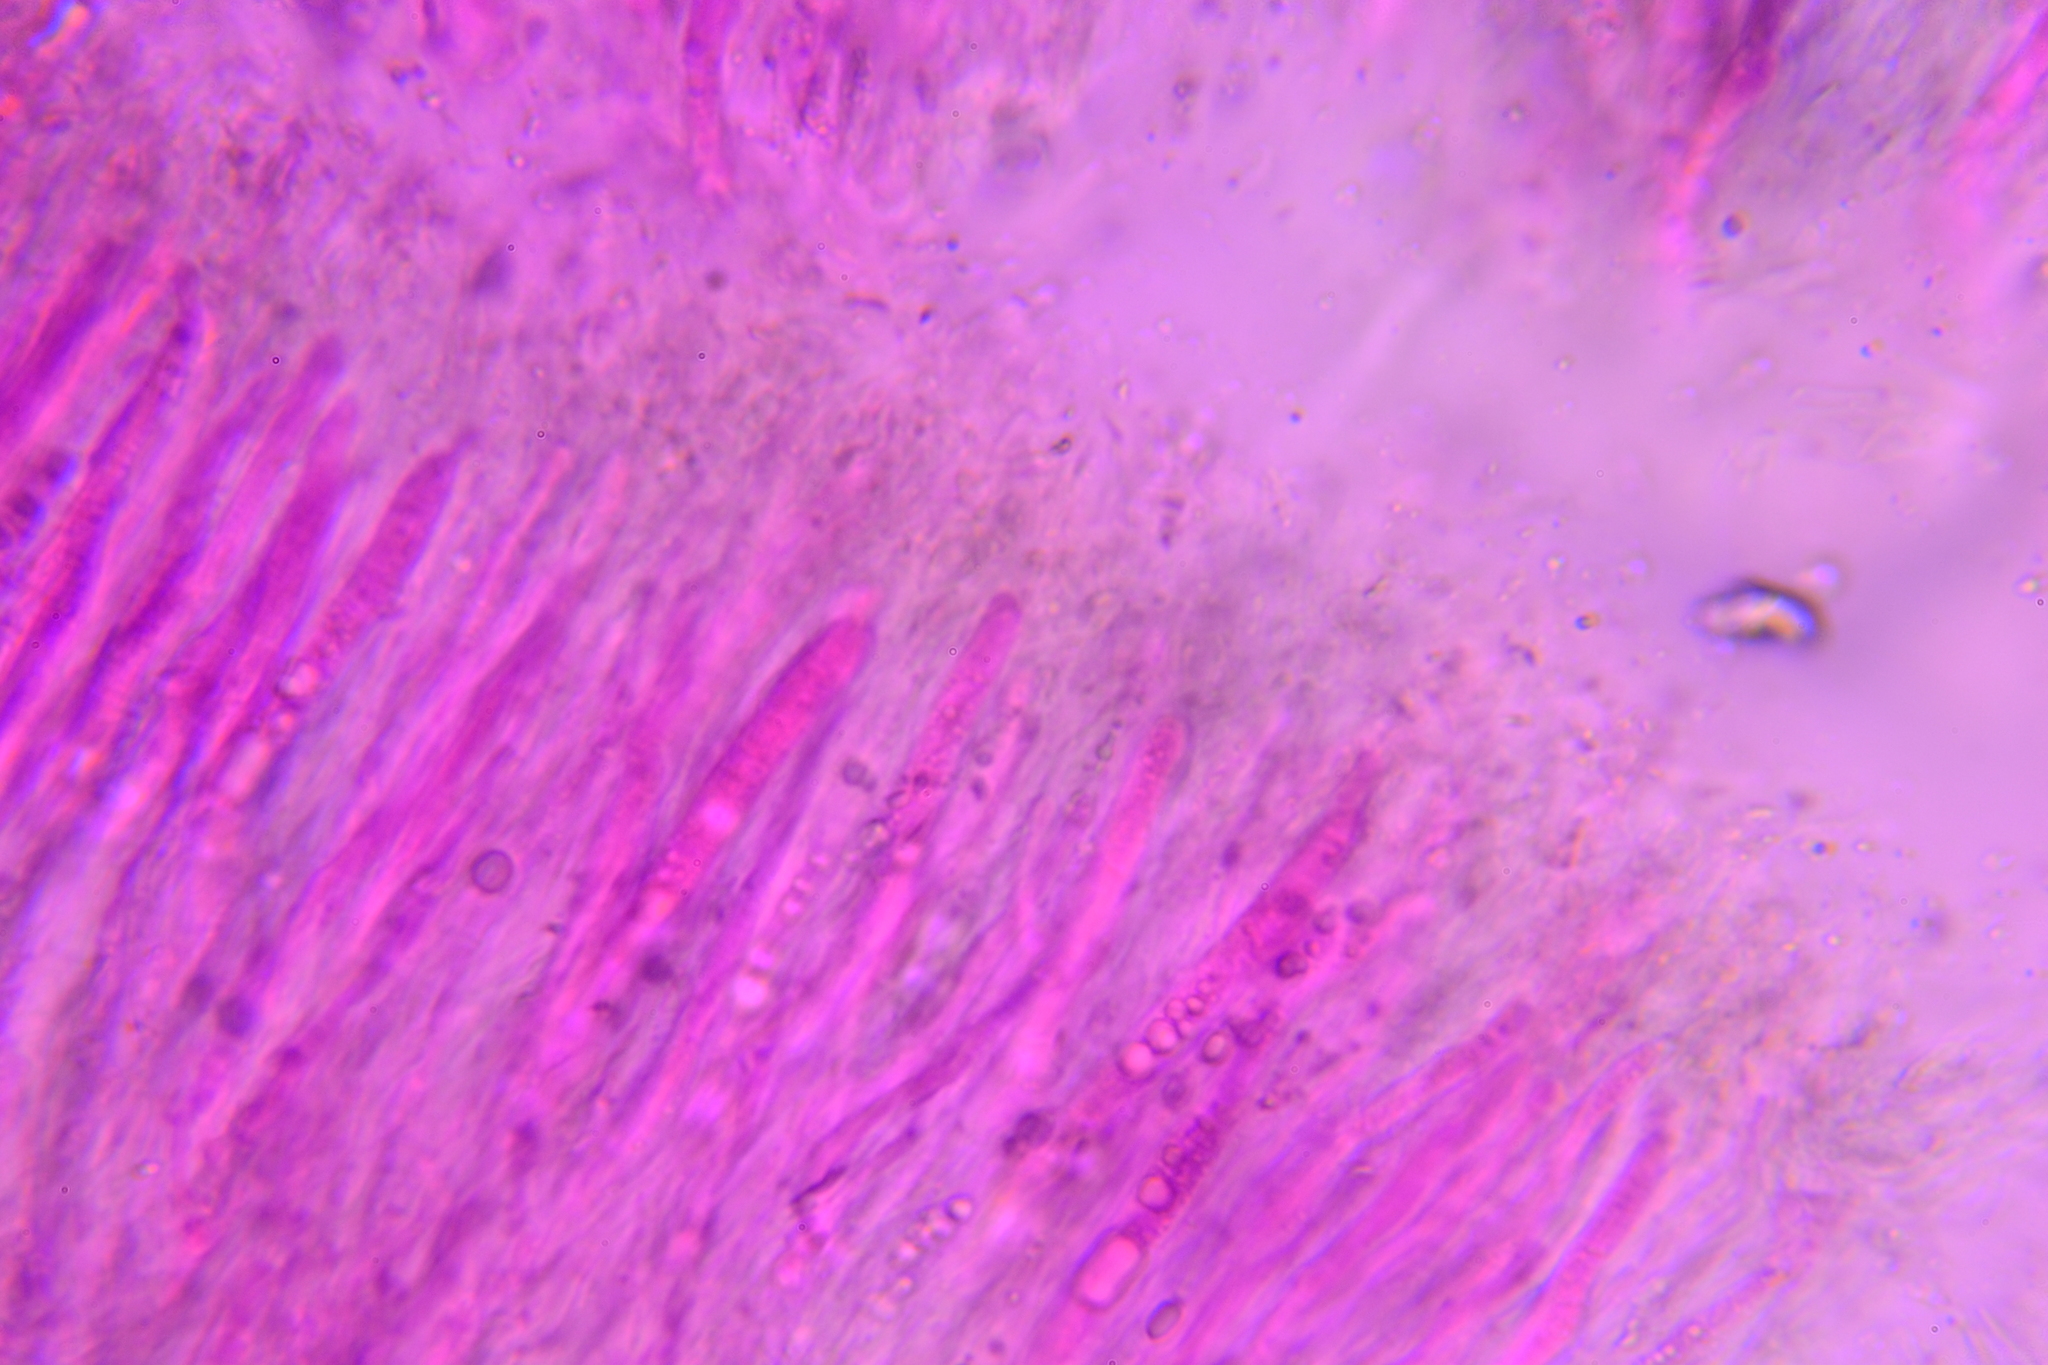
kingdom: Fungi
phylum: Basidiomycota
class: Agaricomycetes
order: Auriculariales
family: Auriculariaceae
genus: Auricularia
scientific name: Auricularia auricula-judae
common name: Jelly ear
